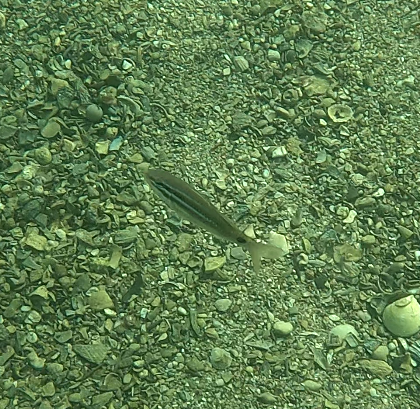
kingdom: Animalia
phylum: Chordata
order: Perciformes
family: Mullidae
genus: Parupeneus
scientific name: Parupeneus spilurus
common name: Blackspot goatfish
